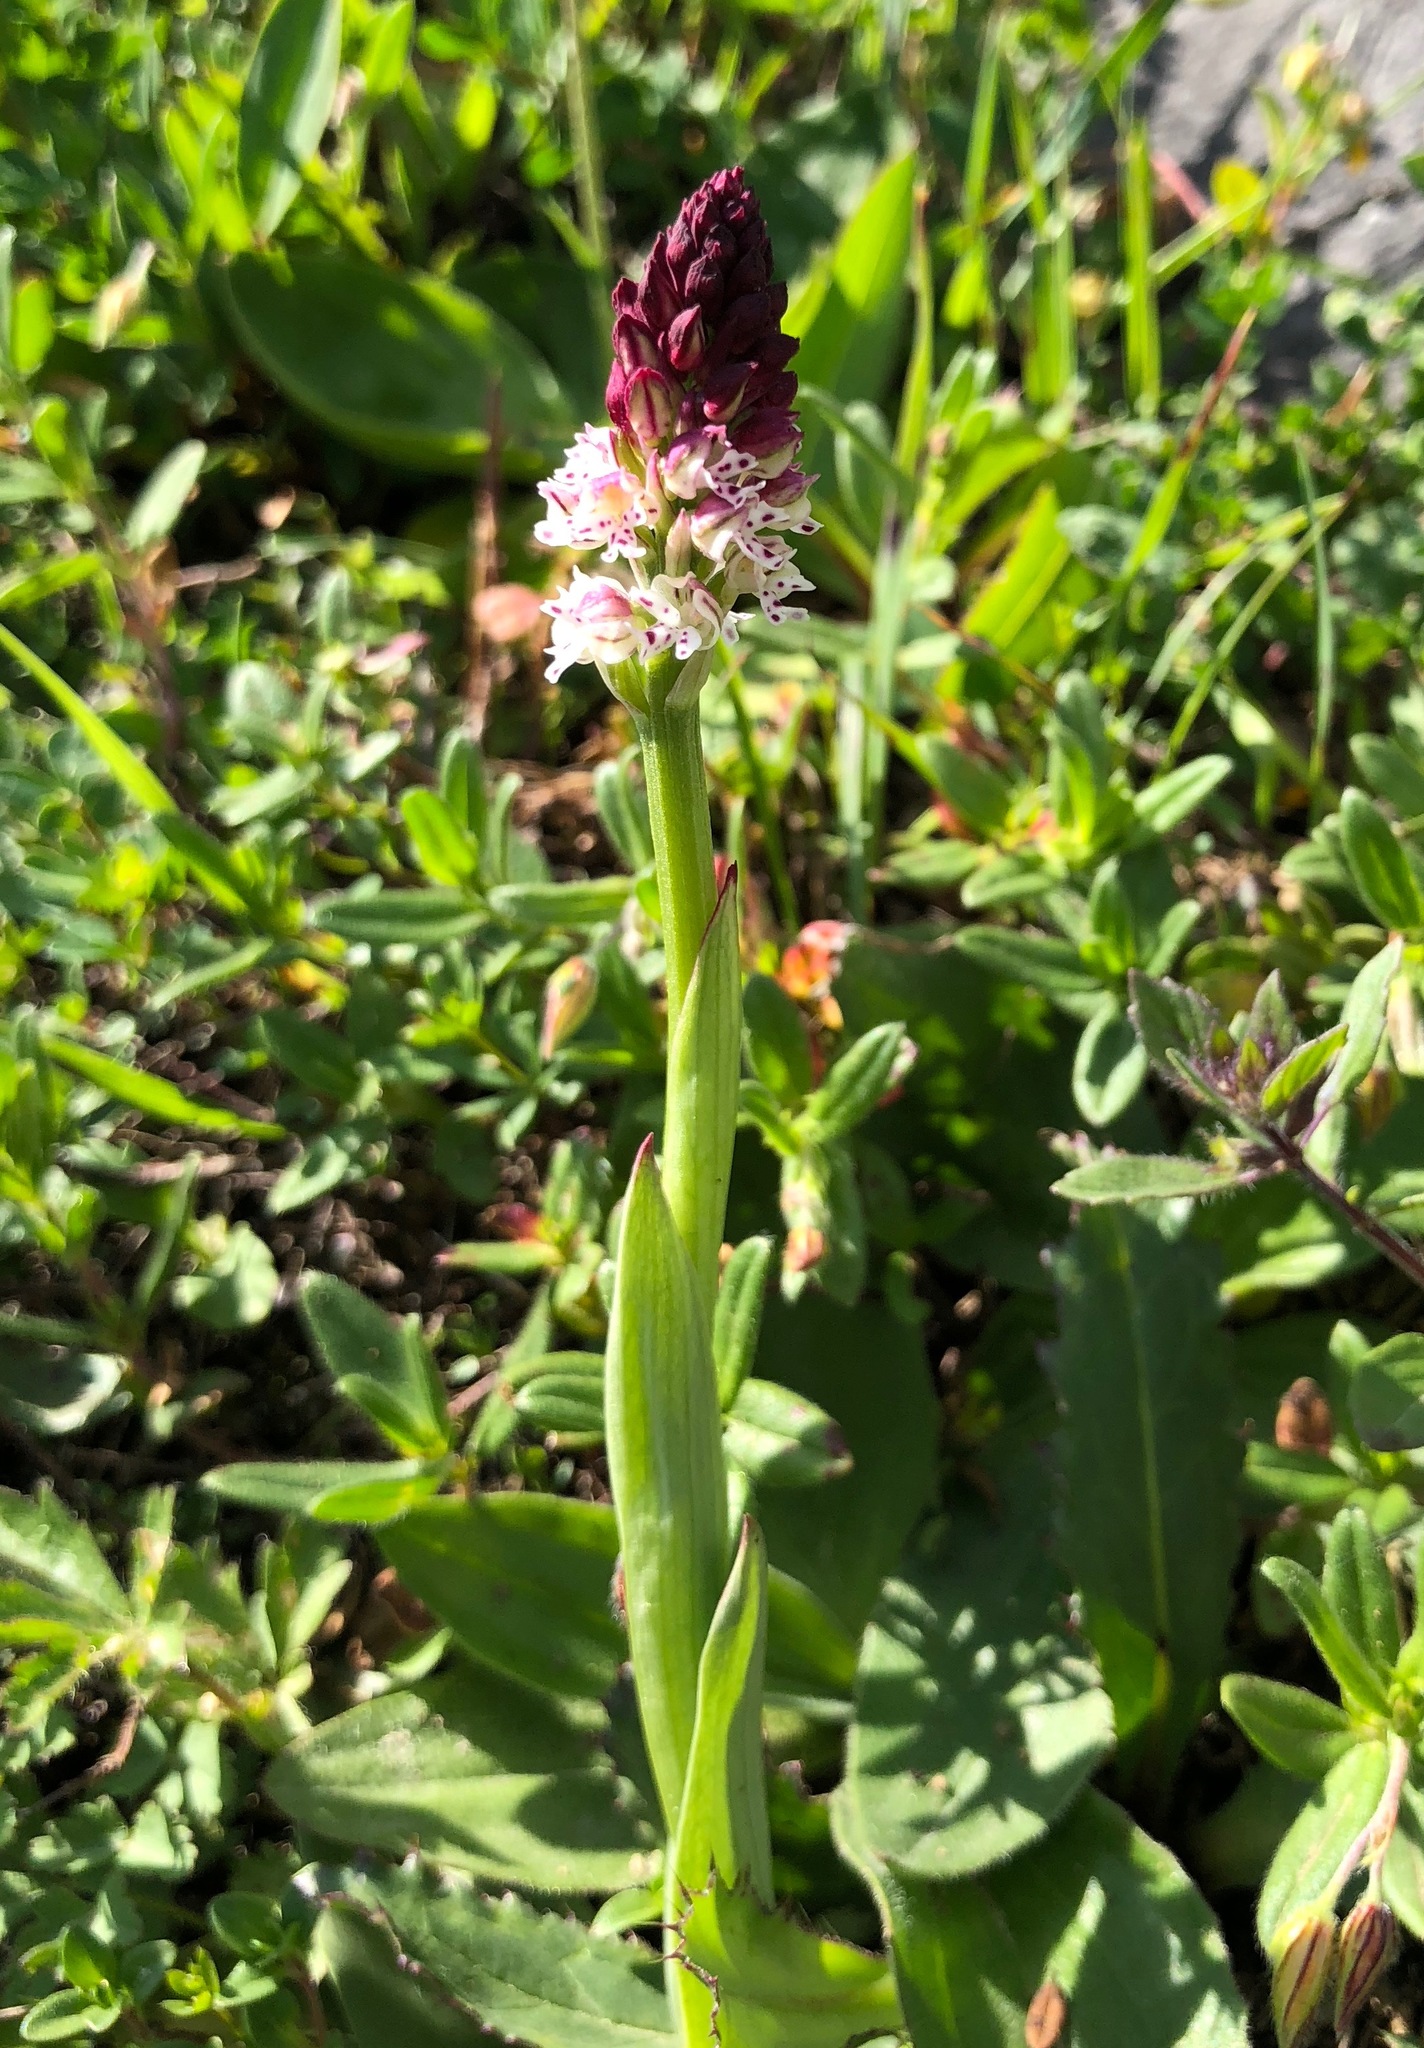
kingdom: Plantae
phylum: Tracheophyta
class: Liliopsida
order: Asparagales
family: Orchidaceae
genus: Neotinea
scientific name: Neotinea ustulata
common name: Burnt orchid
